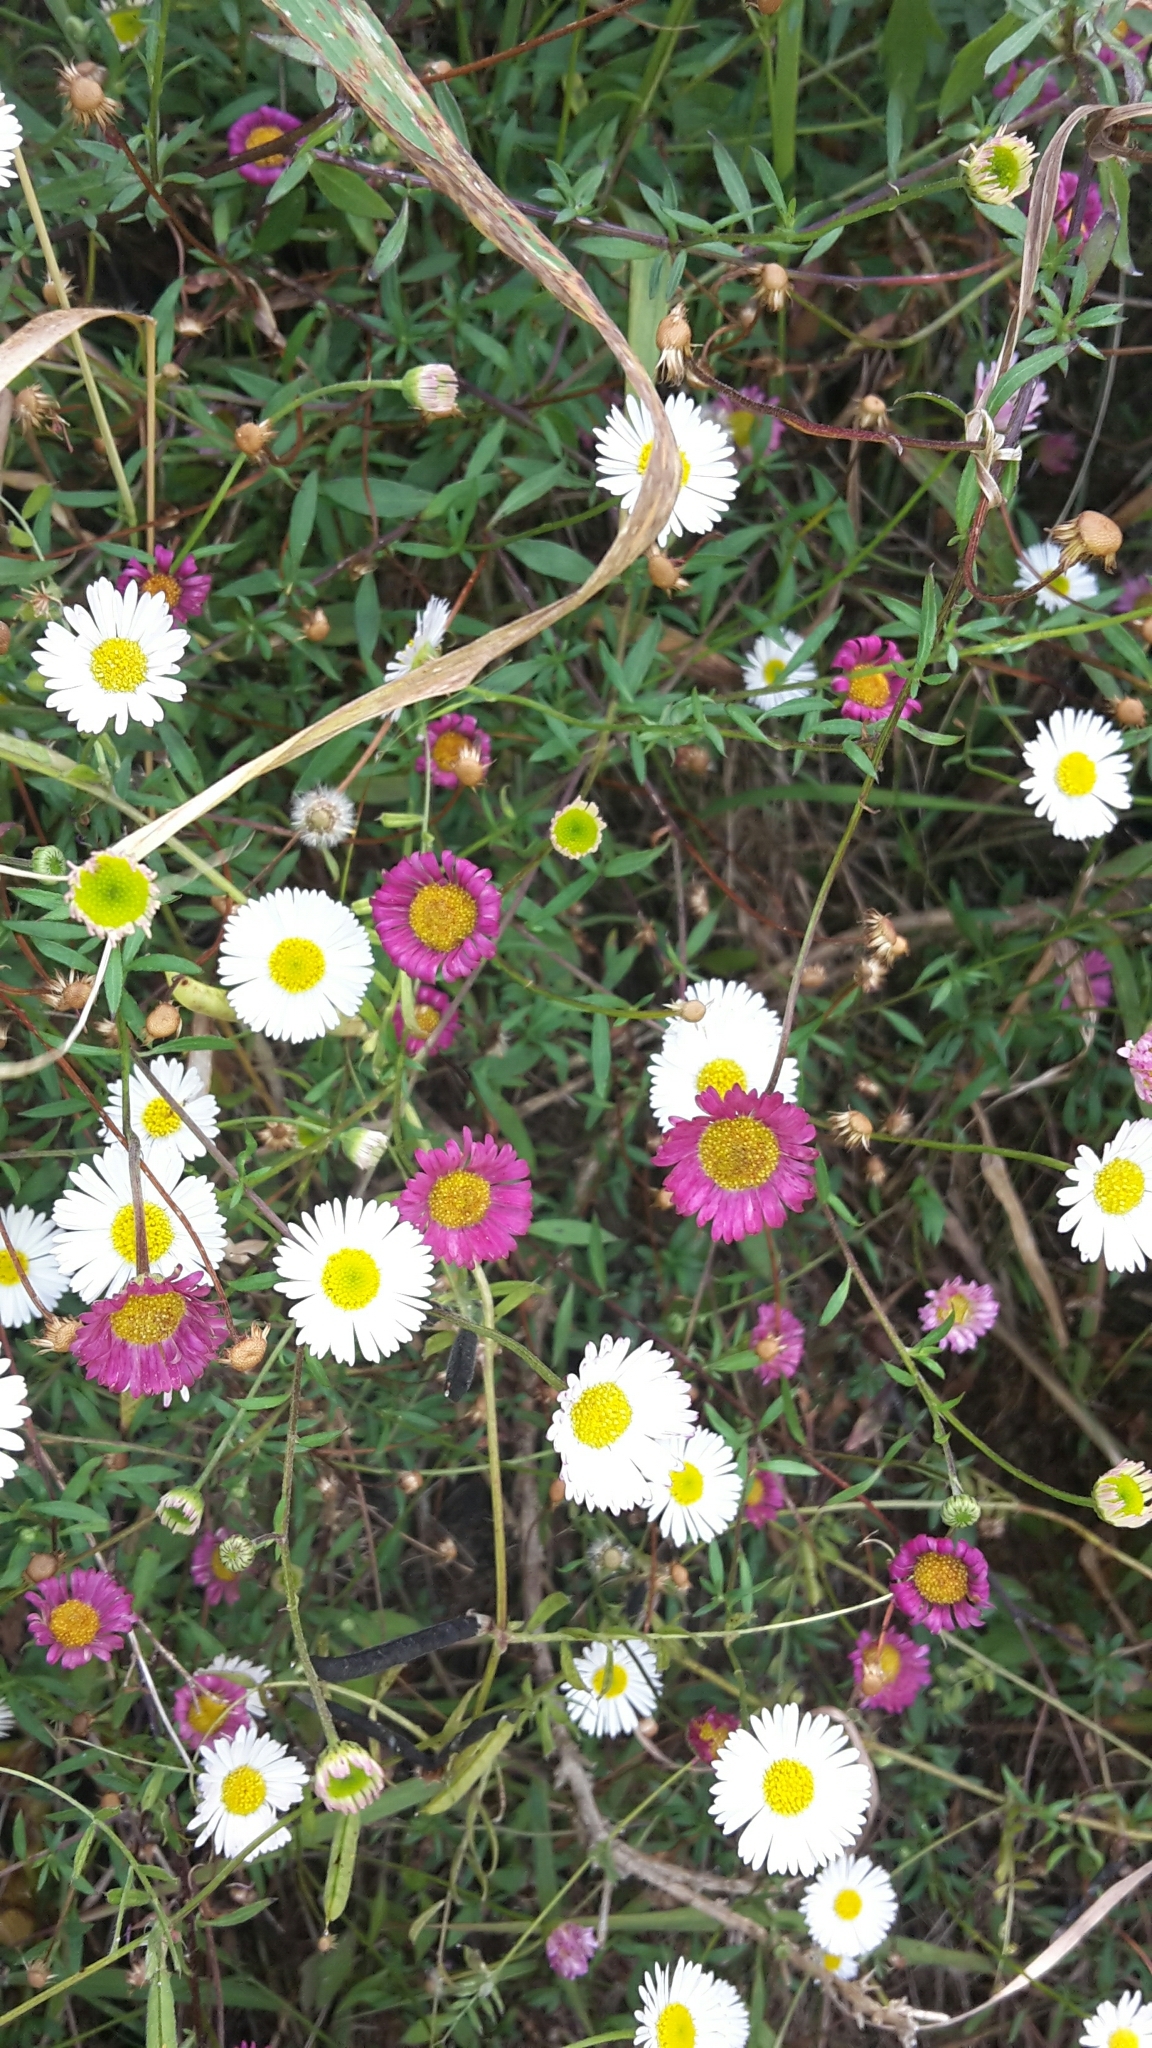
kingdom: Plantae
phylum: Tracheophyta
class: Magnoliopsida
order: Asterales
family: Asteraceae
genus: Erigeron
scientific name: Erigeron karvinskianus
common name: Mexican fleabane
